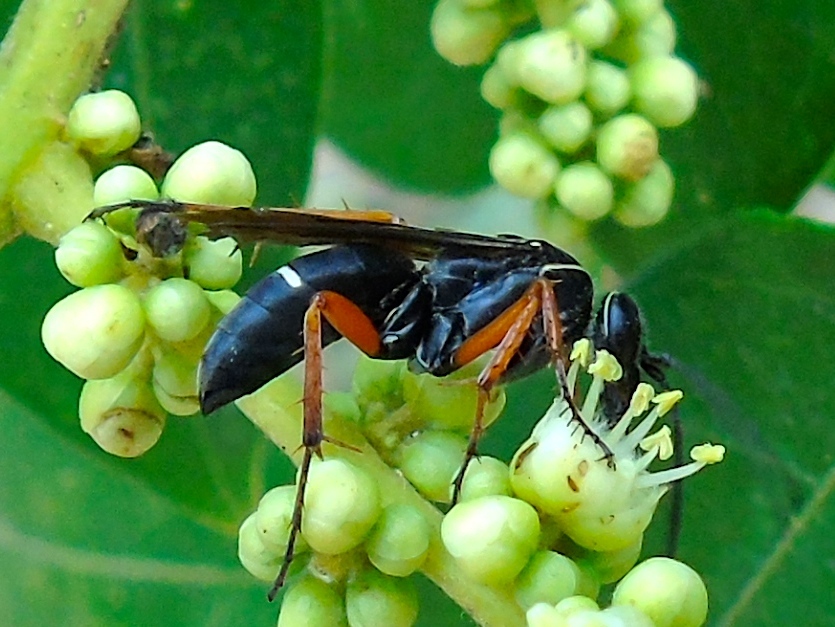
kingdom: Animalia
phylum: Arthropoda
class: Insecta
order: Hymenoptera
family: Pompilidae
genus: Episyron
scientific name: Episyron conterminus
